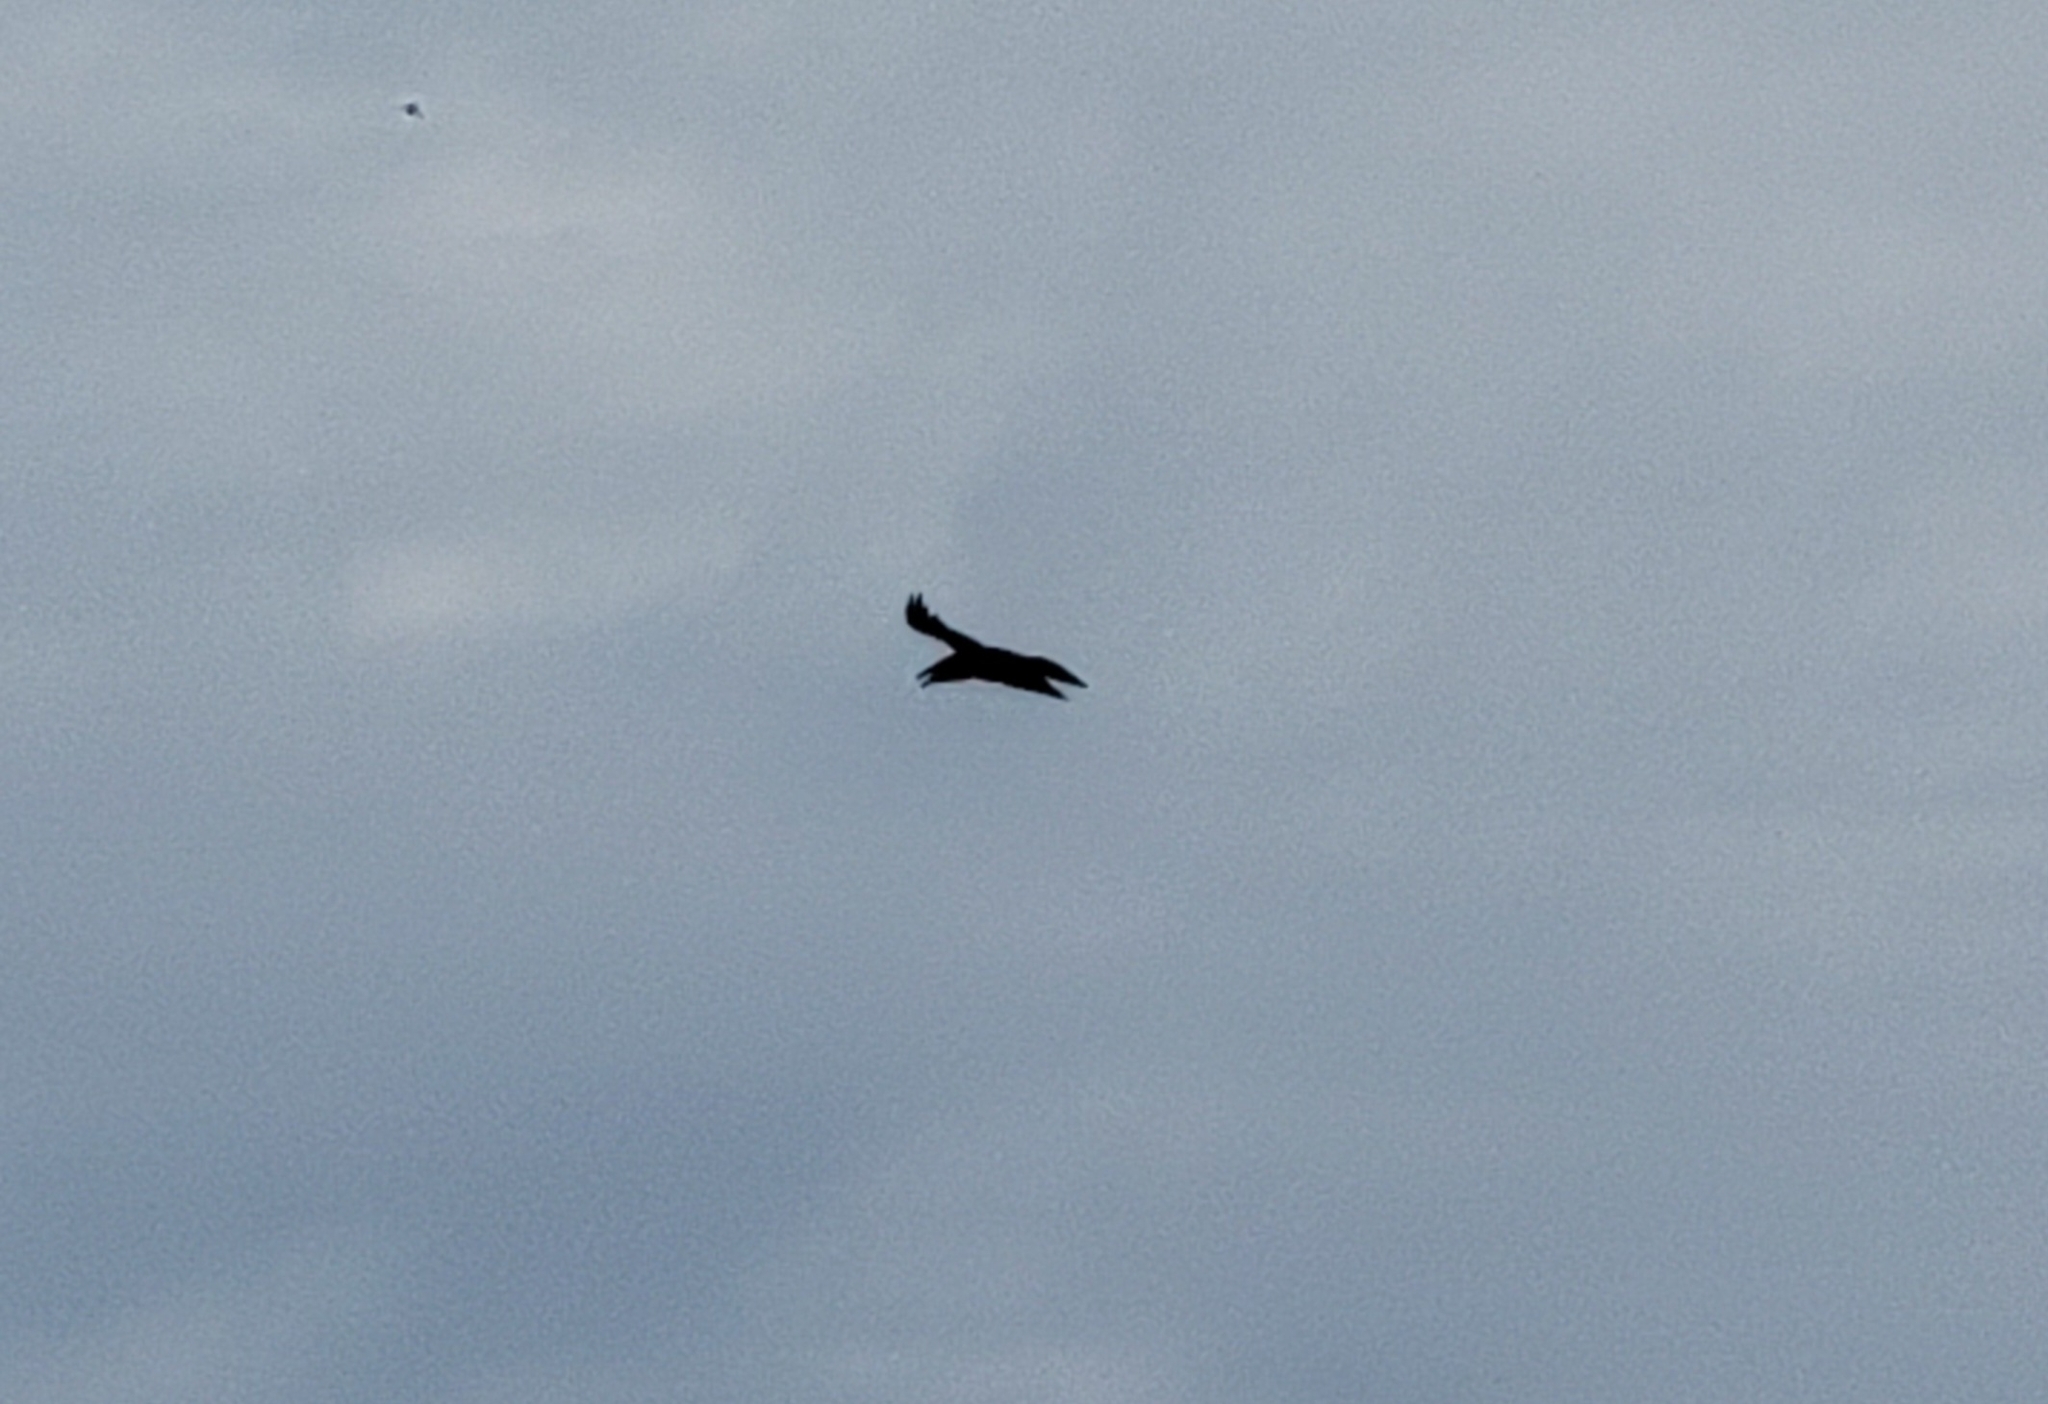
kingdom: Animalia
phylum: Chordata
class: Aves
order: Passeriformes
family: Corvidae
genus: Corvus
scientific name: Corvus corax
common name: Common raven
